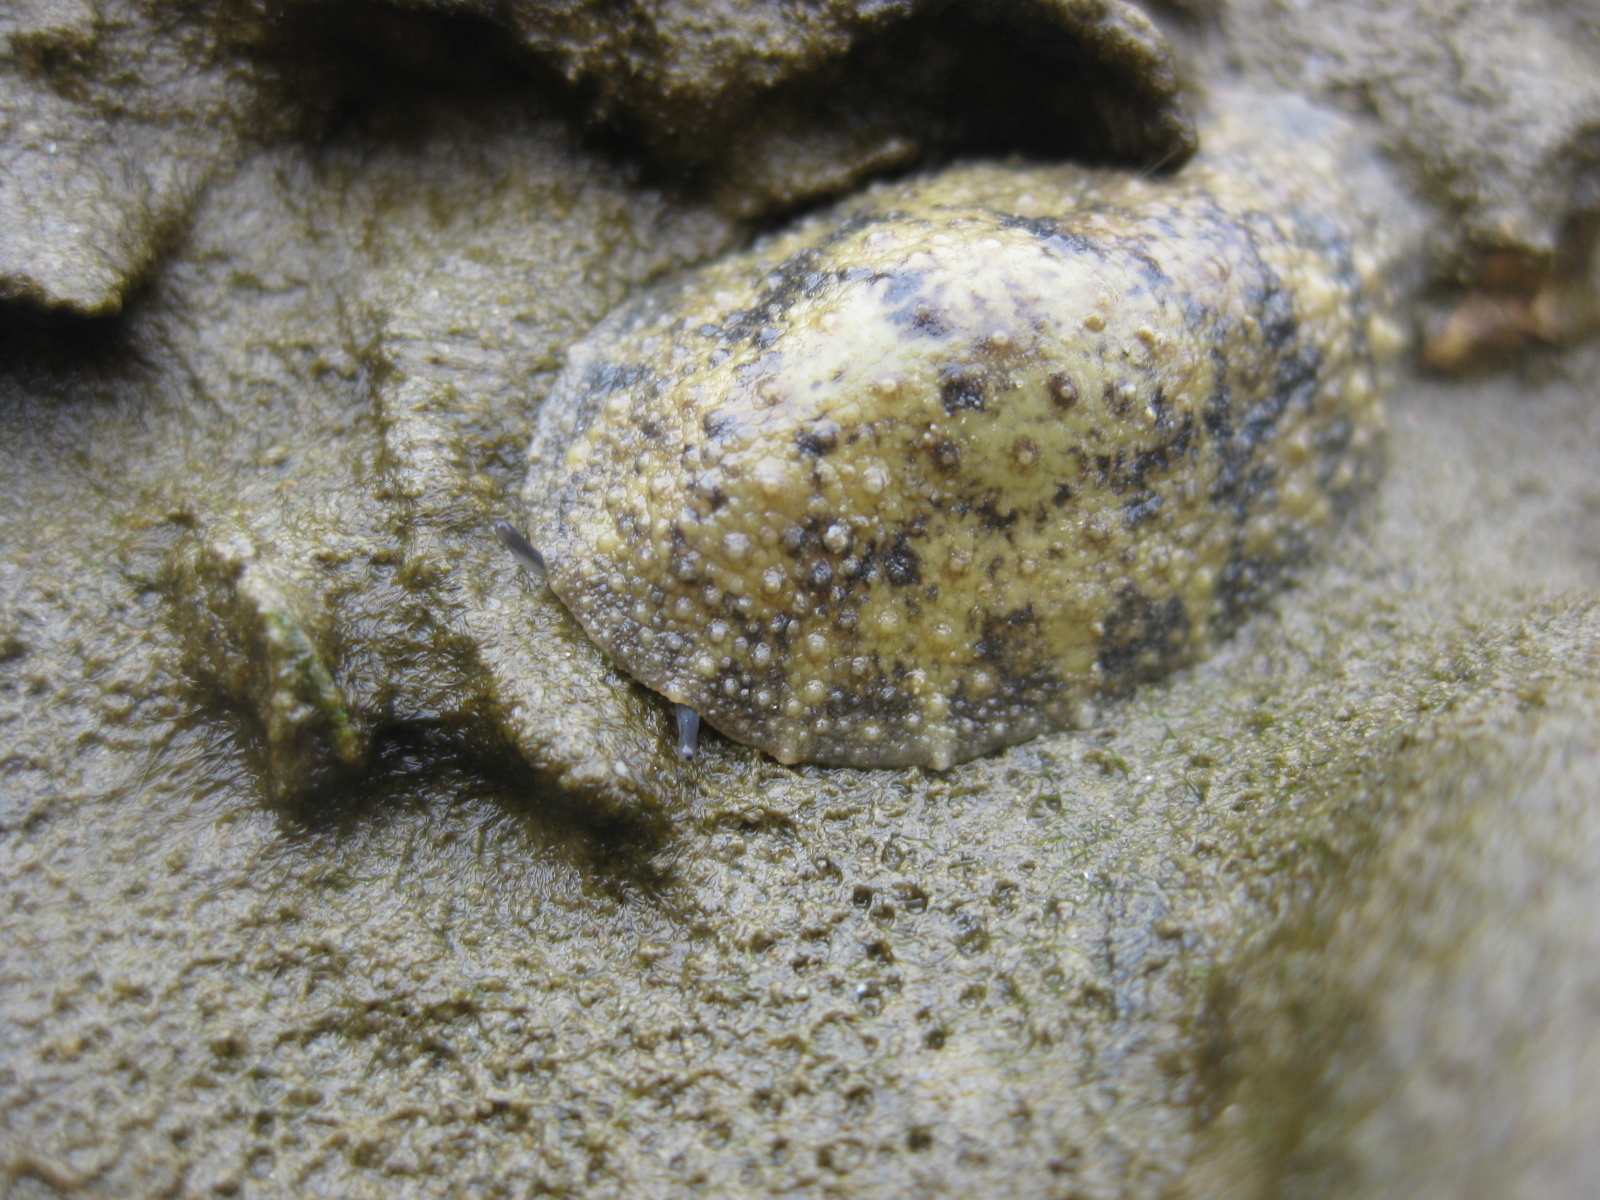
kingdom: Animalia
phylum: Mollusca
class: Gastropoda
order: Systellommatophora
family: Onchidiidae
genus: Onchidella
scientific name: Onchidella nigricans
